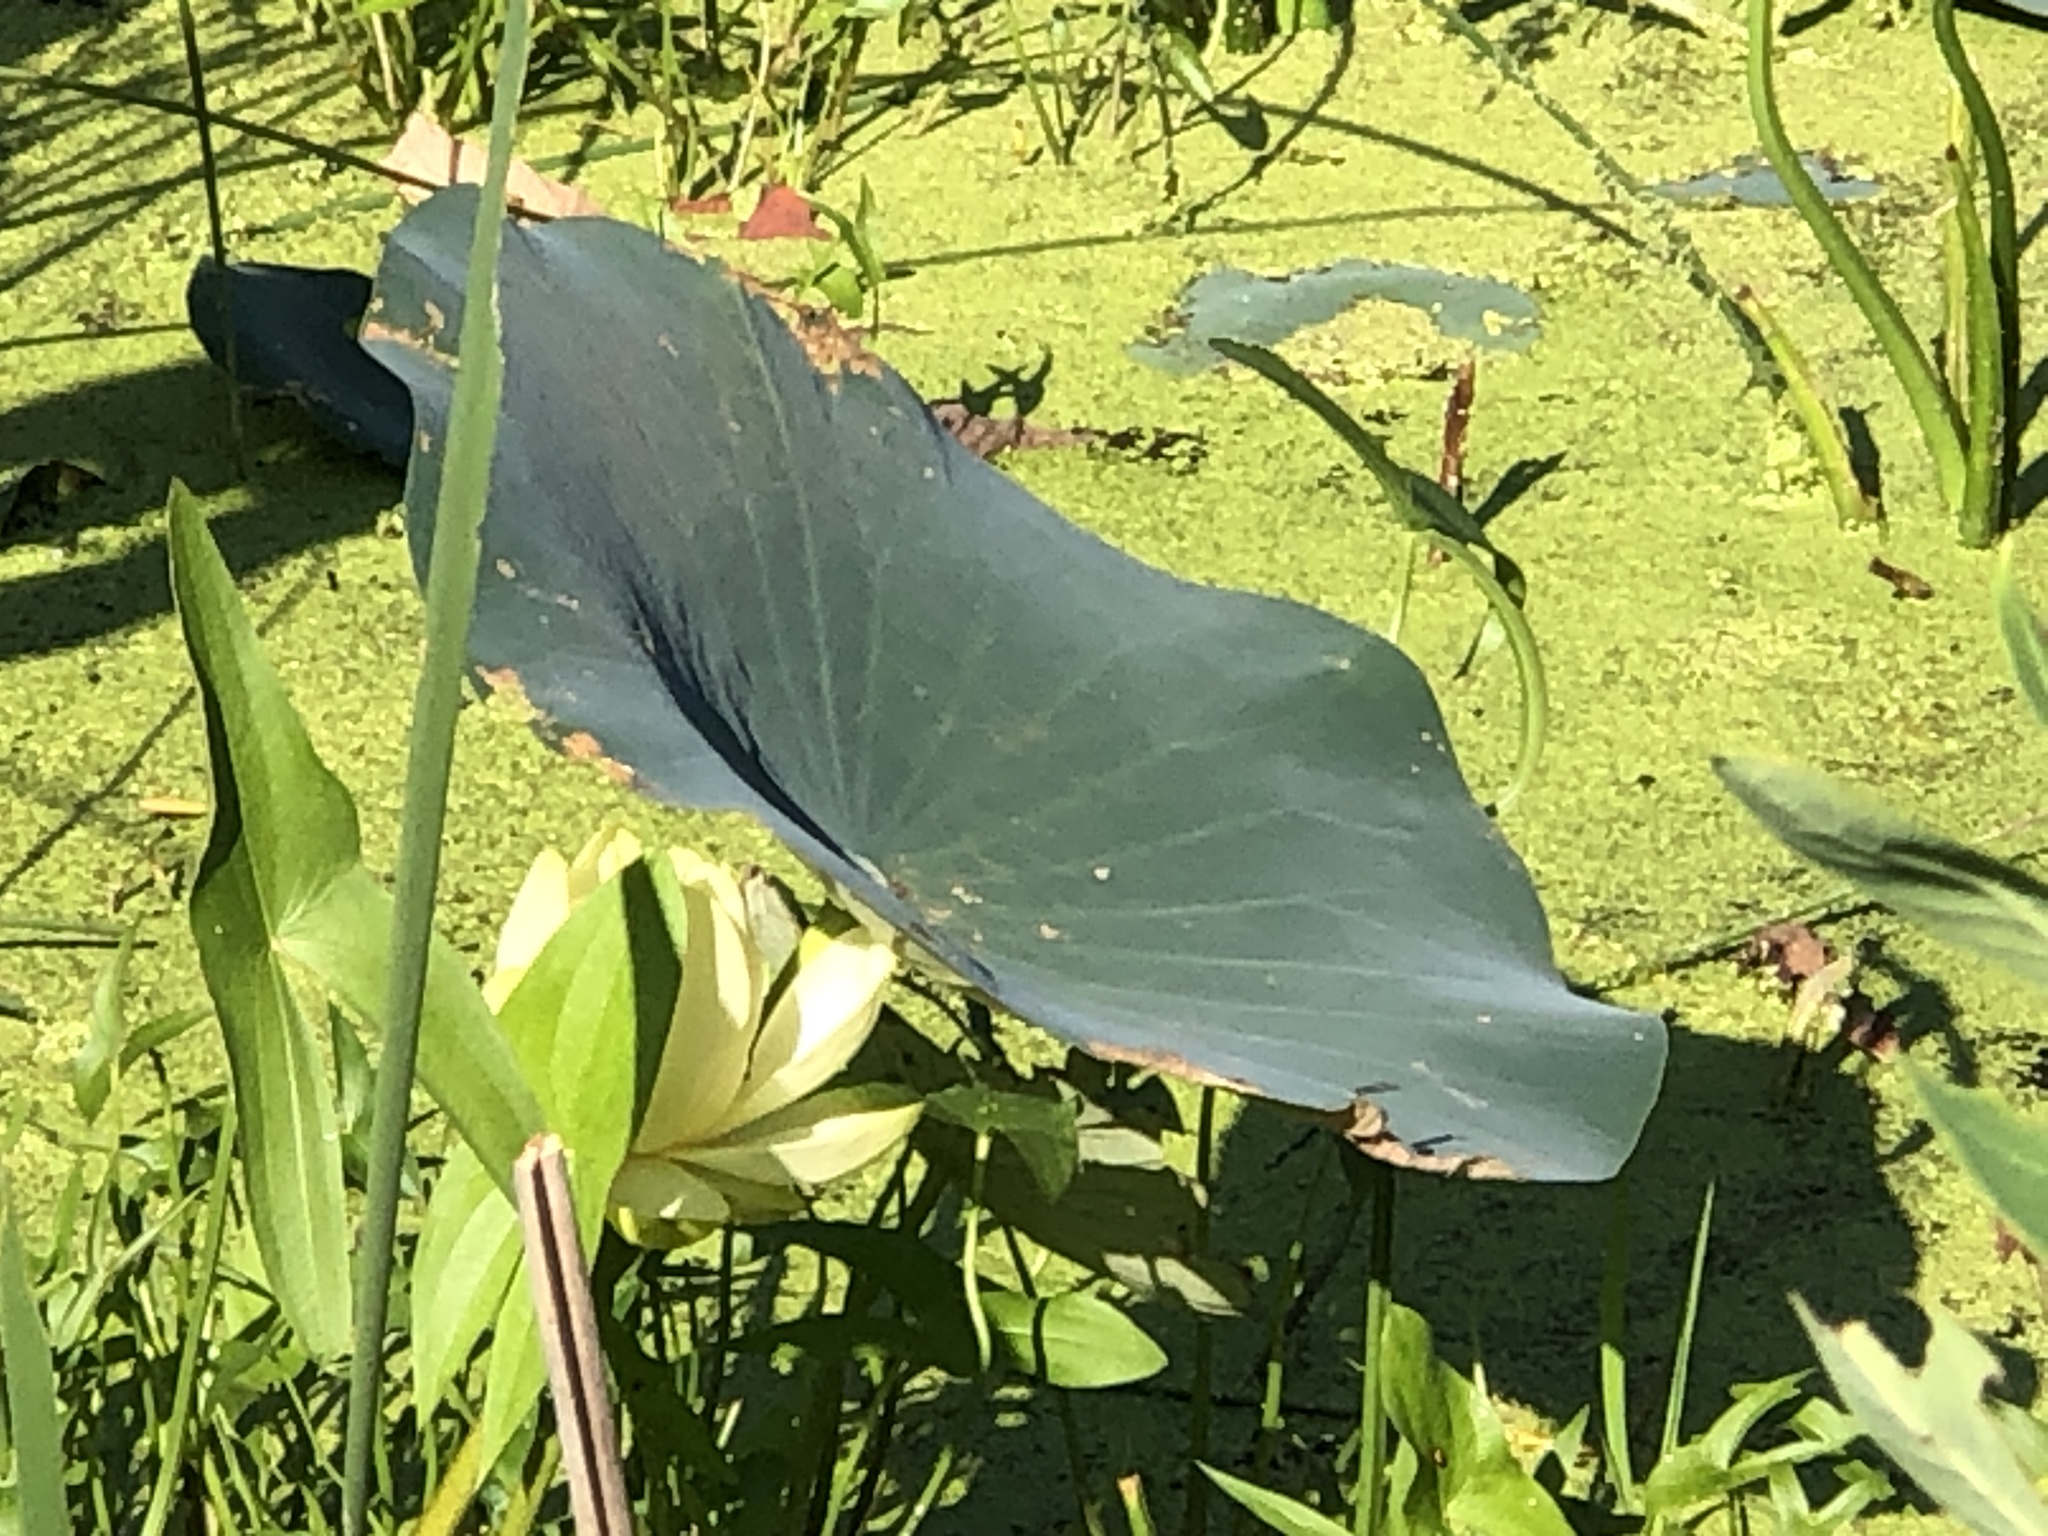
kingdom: Plantae
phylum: Tracheophyta
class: Magnoliopsida
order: Proteales
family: Nelumbonaceae
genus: Nelumbo
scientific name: Nelumbo lutea
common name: American lotus
